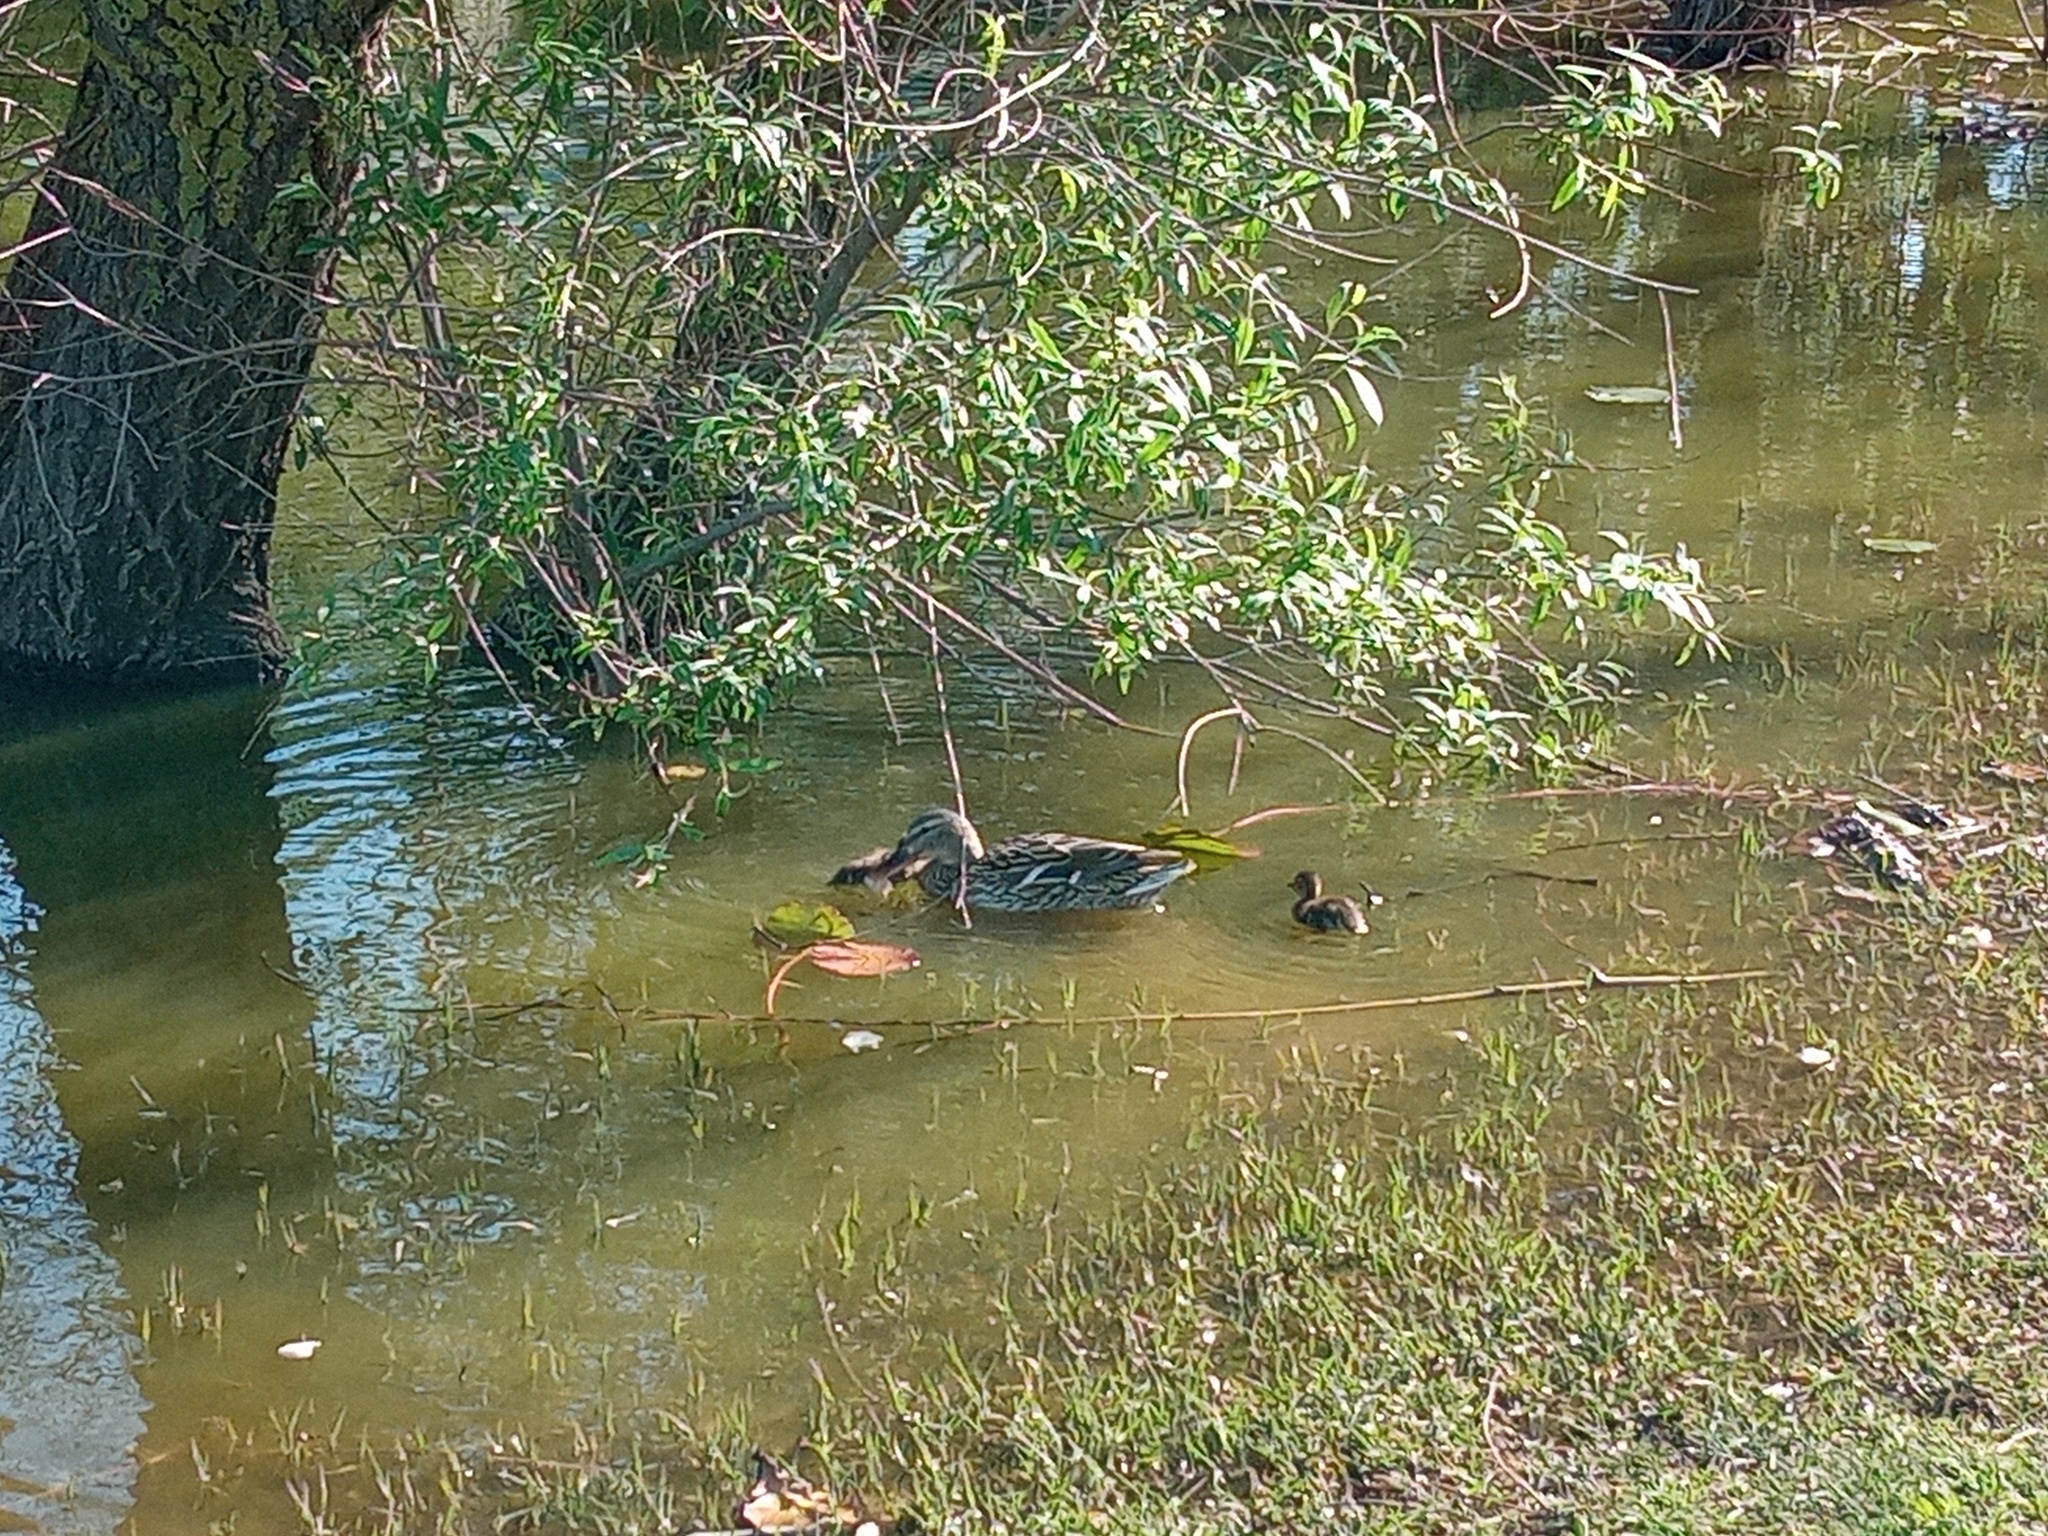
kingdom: Animalia
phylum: Chordata
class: Aves
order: Anseriformes
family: Anatidae
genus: Anas
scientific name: Anas platyrhynchos
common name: Mallard
